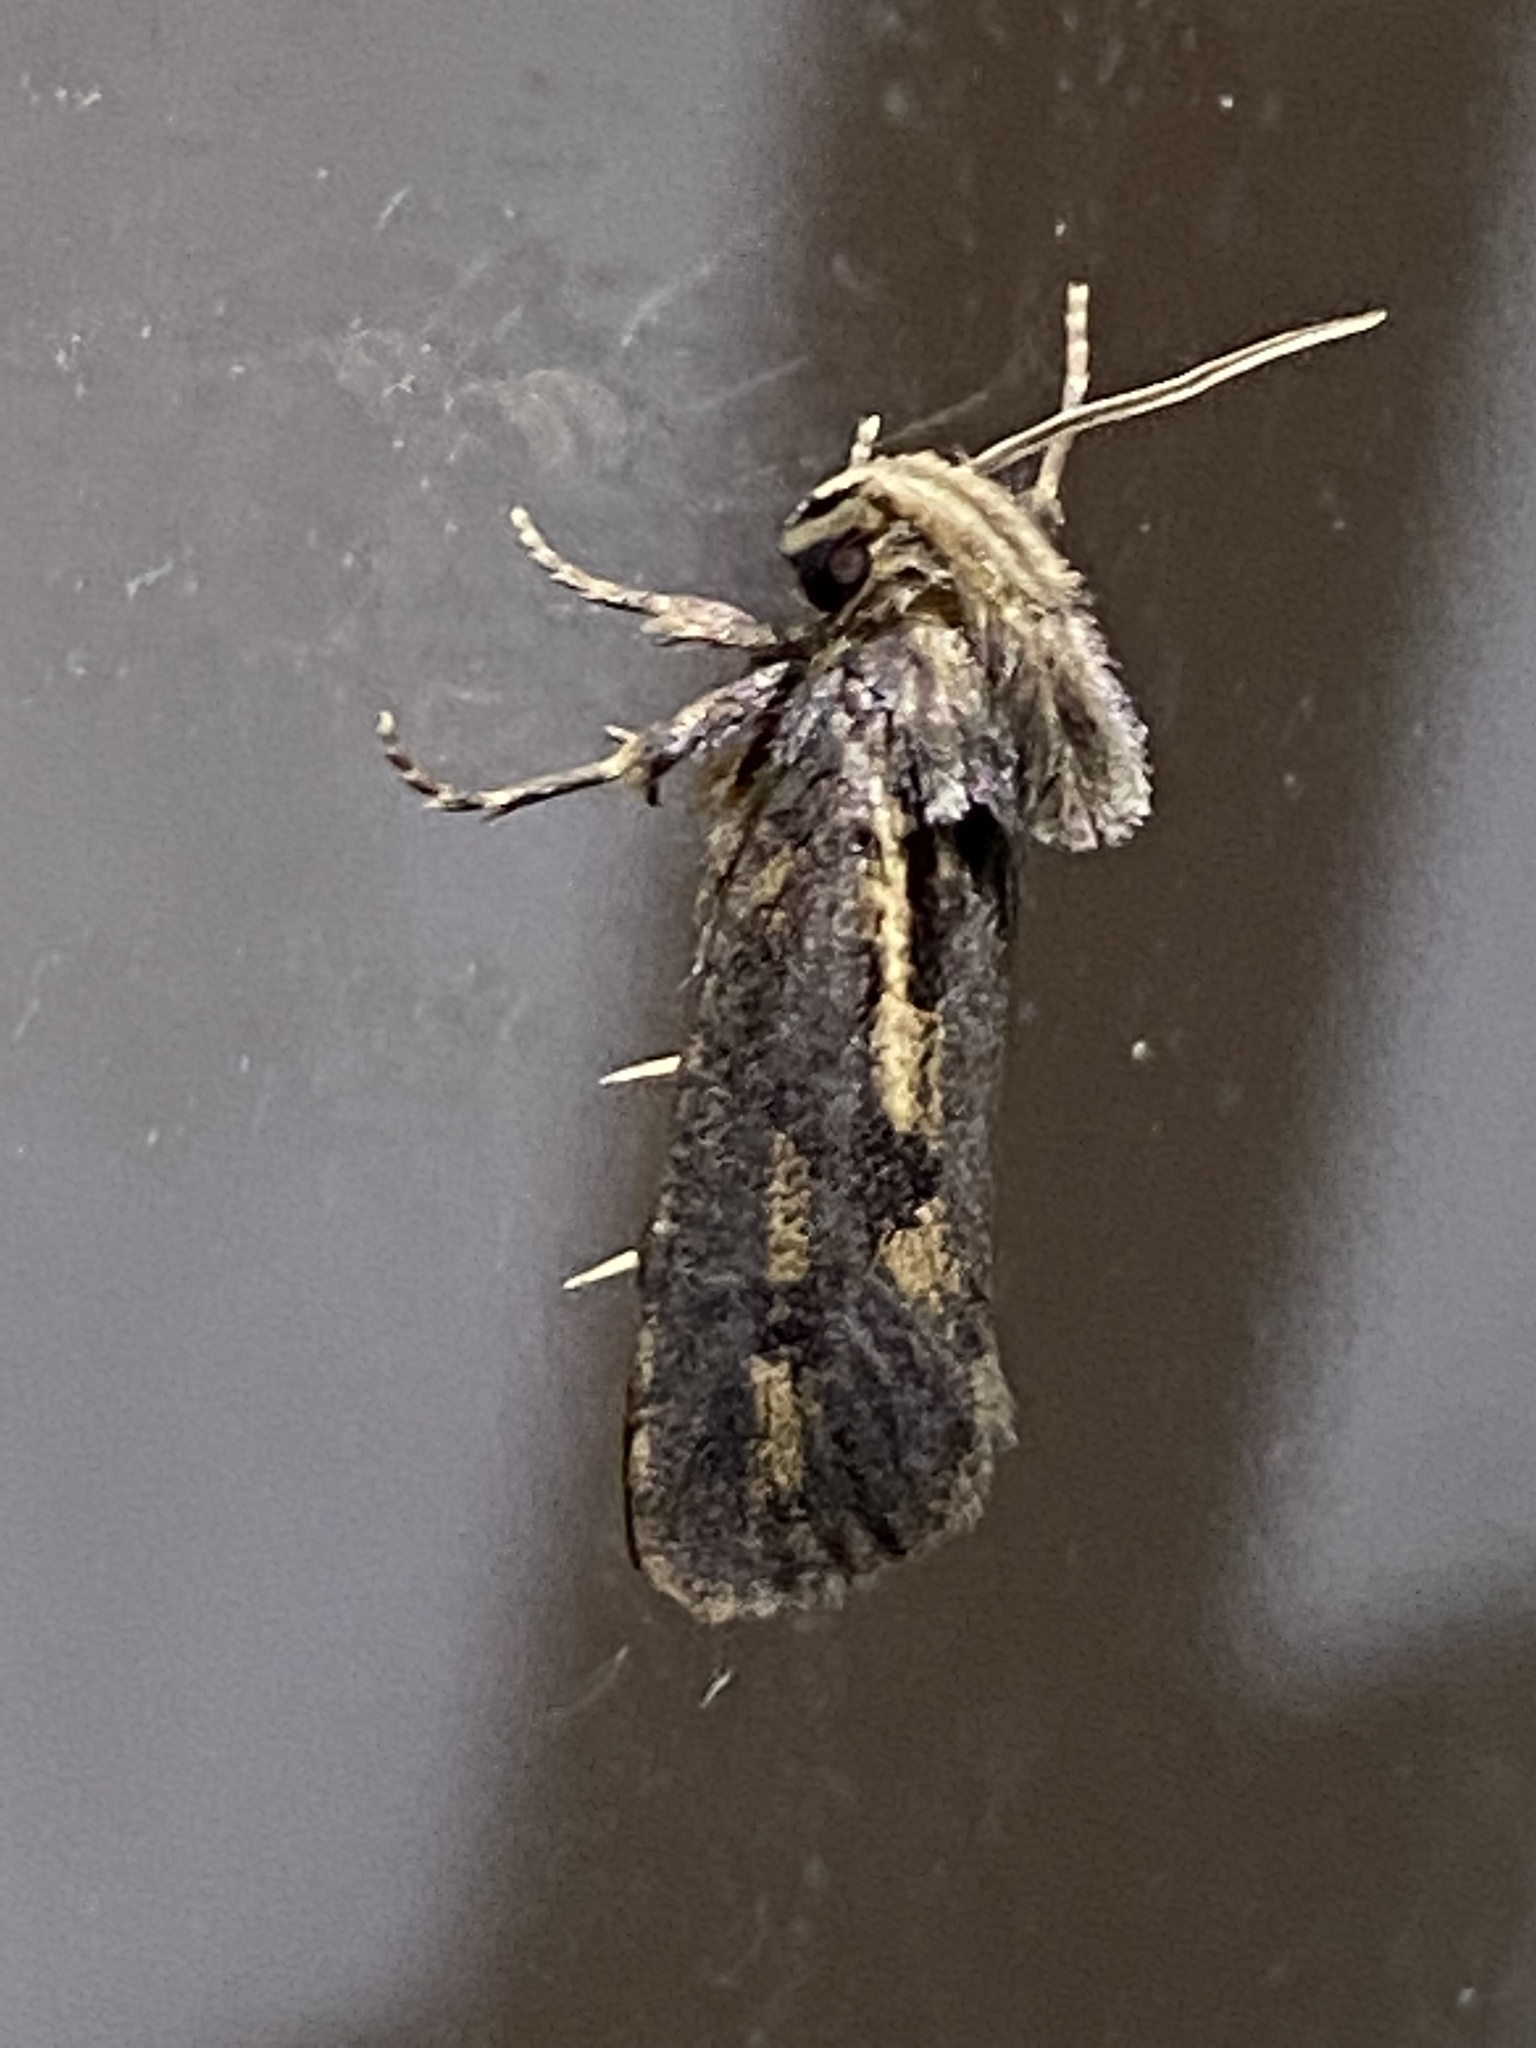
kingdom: Animalia
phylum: Arthropoda
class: Insecta
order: Lepidoptera
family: Tineidae
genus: Acrolophus
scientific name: Acrolophus popeanella
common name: Clemens' grass tubeworm moth
